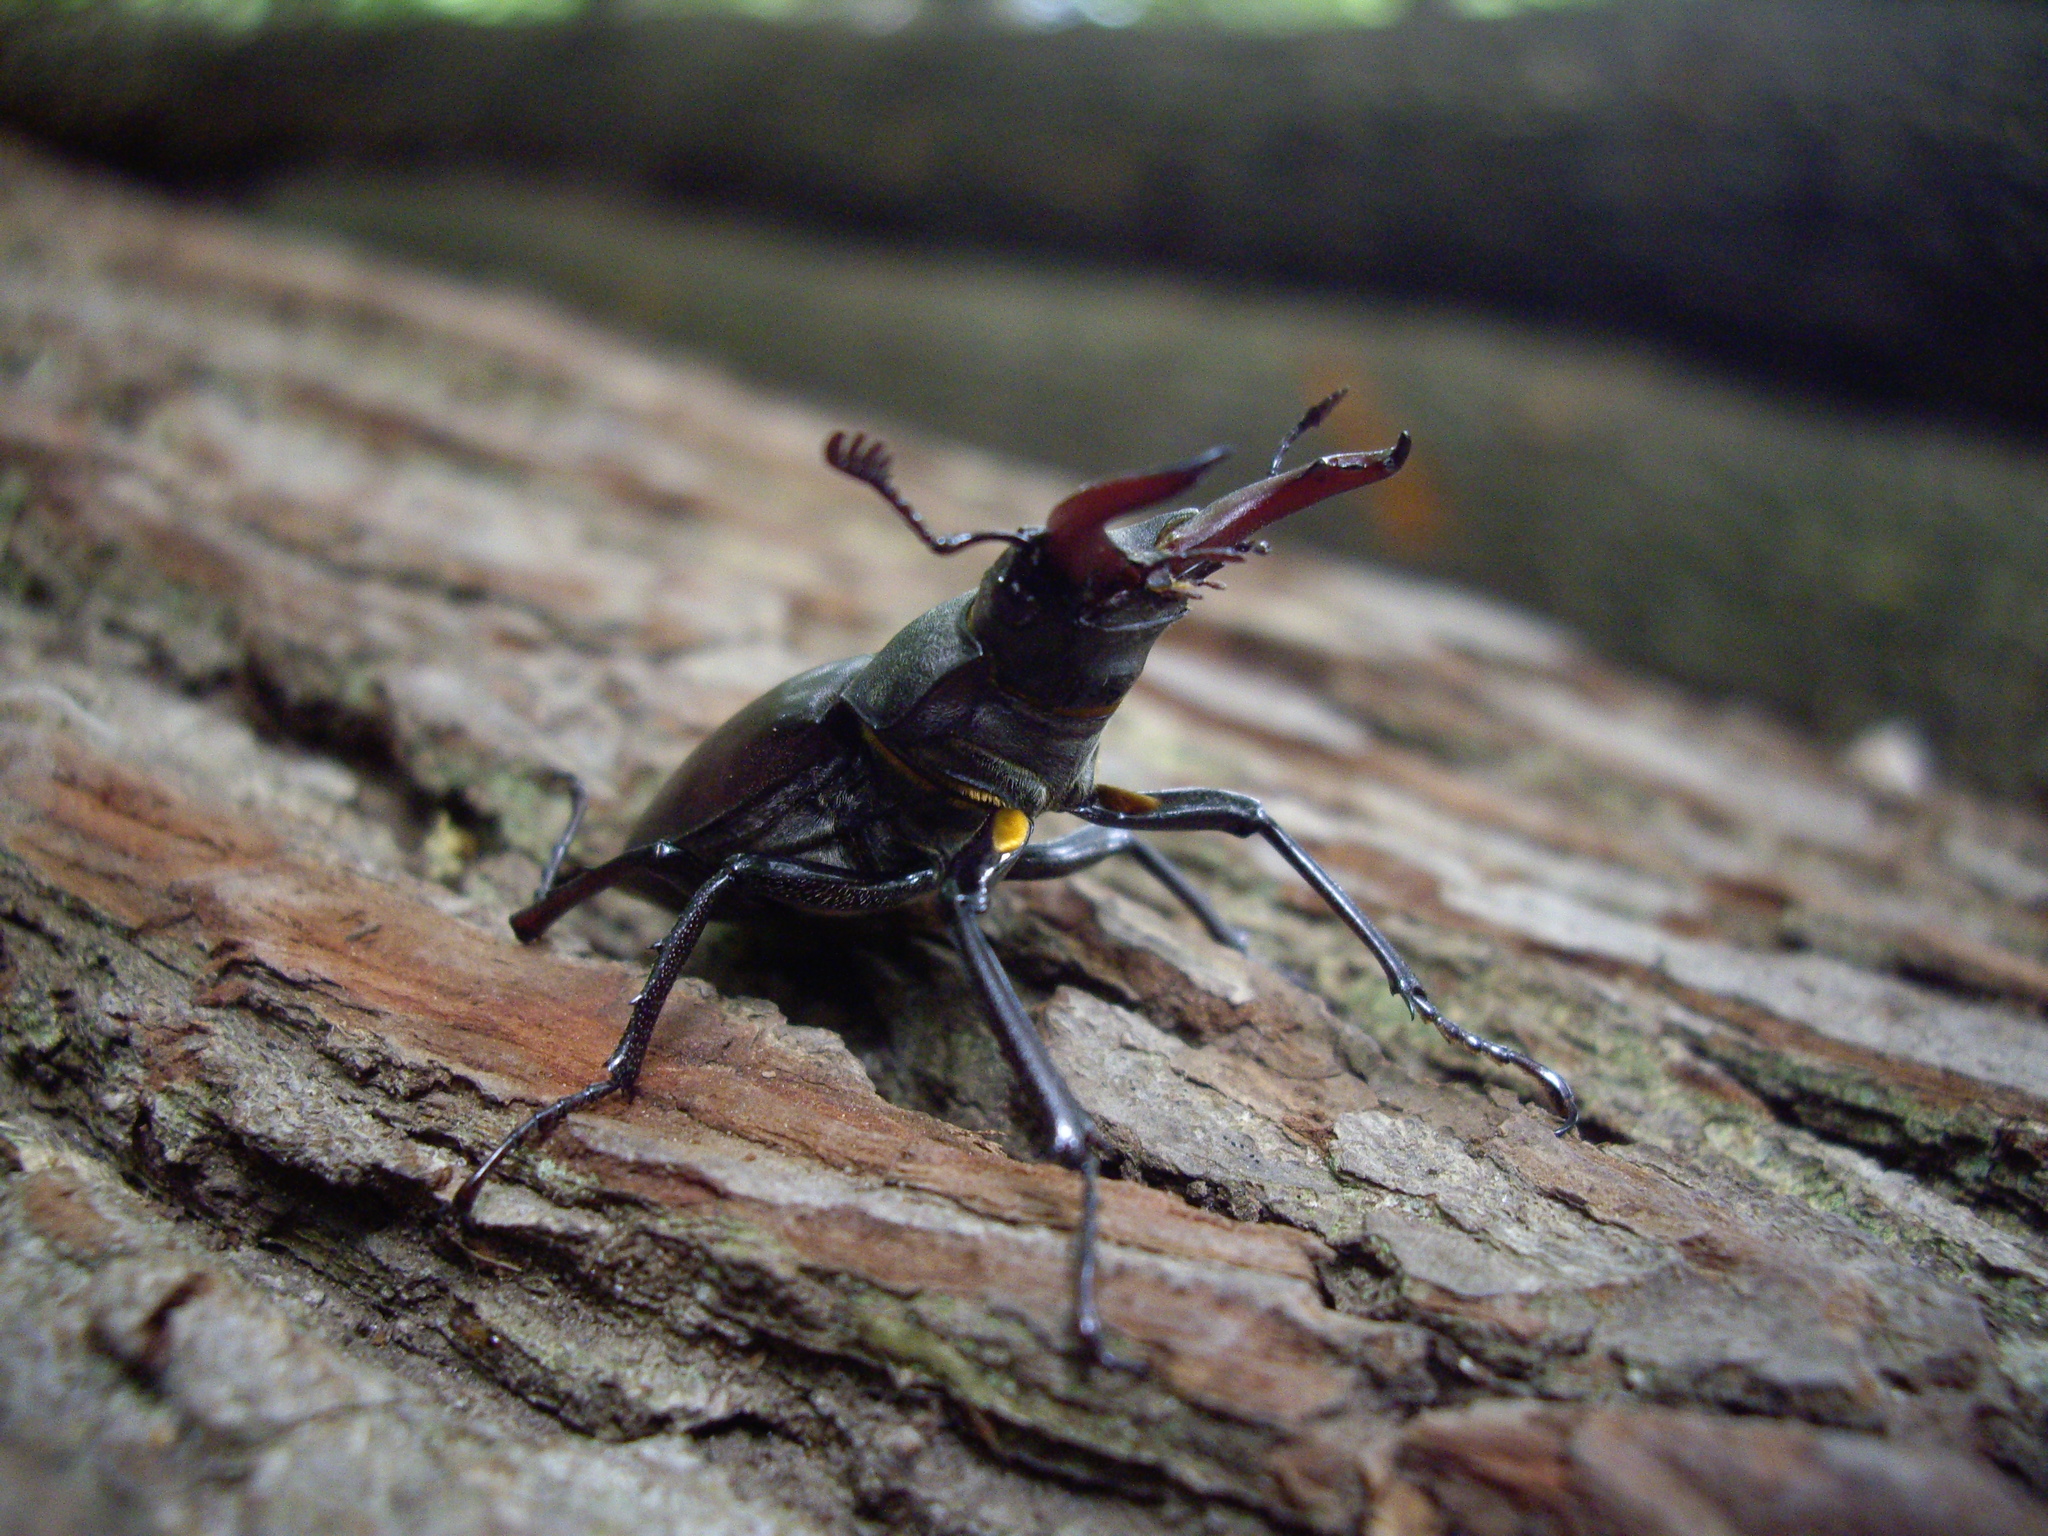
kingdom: Animalia
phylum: Arthropoda
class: Insecta
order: Coleoptera
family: Lucanidae
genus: Lucanus
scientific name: Lucanus cervus
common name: Stag beetle
